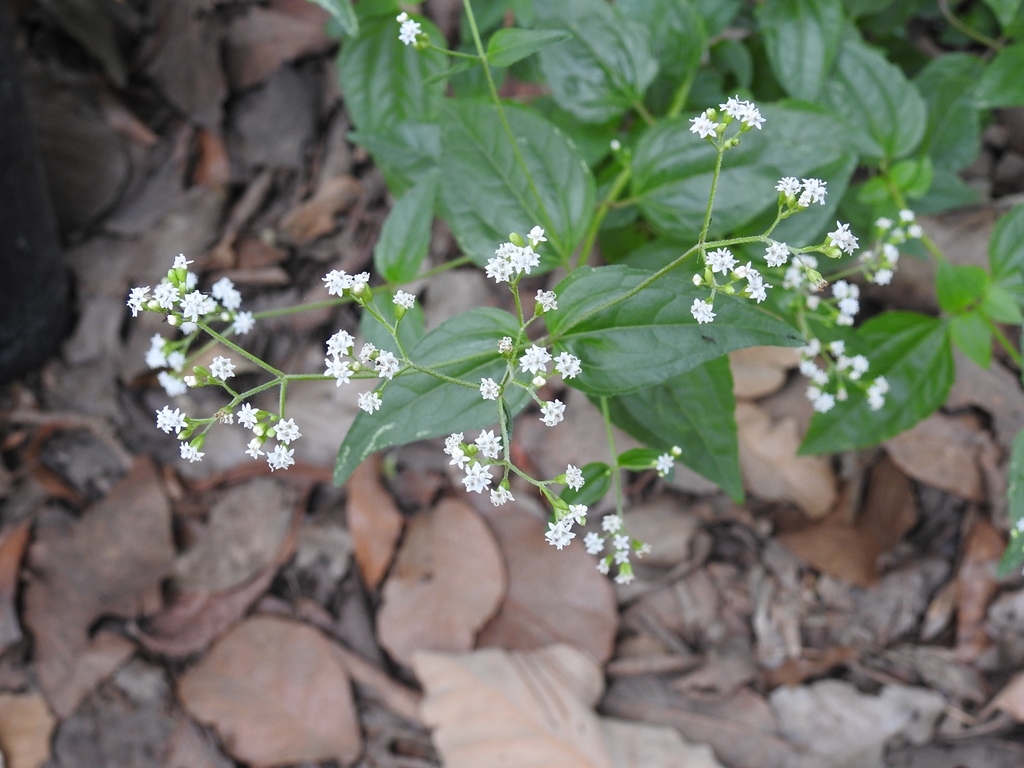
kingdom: Plantae
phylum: Tracheophyta
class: Magnoliopsida
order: Asterales
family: Asteraceae
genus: Piqueria
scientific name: Piqueria pilosa
